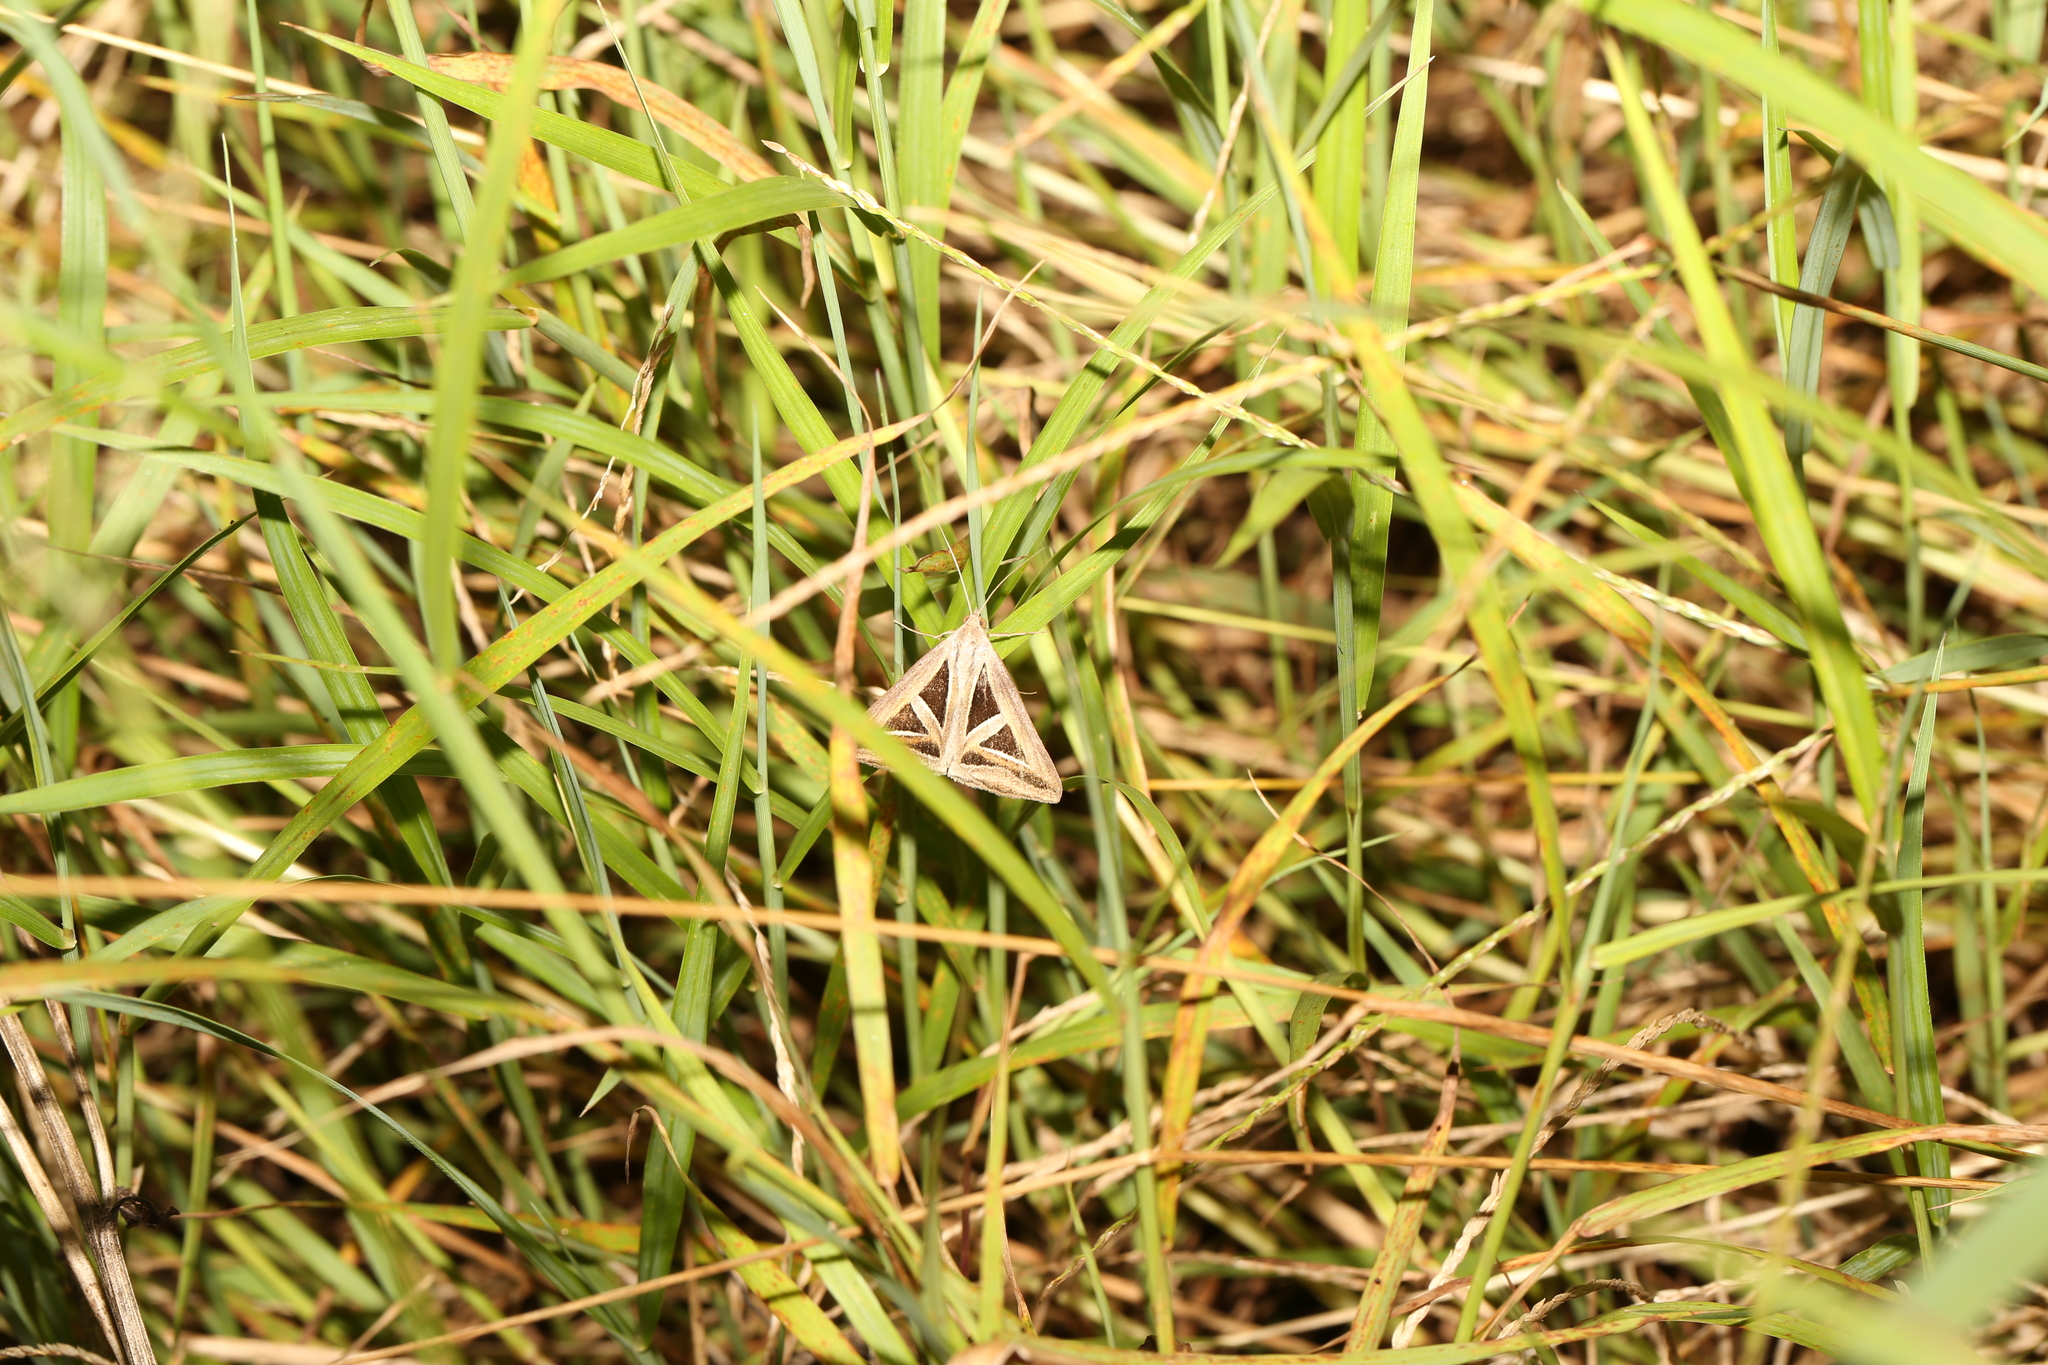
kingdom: Animalia
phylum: Arthropoda
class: Insecta
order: Lepidoptera
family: Erebidae
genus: Trigonodes
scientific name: Trigonodes hyppasia
